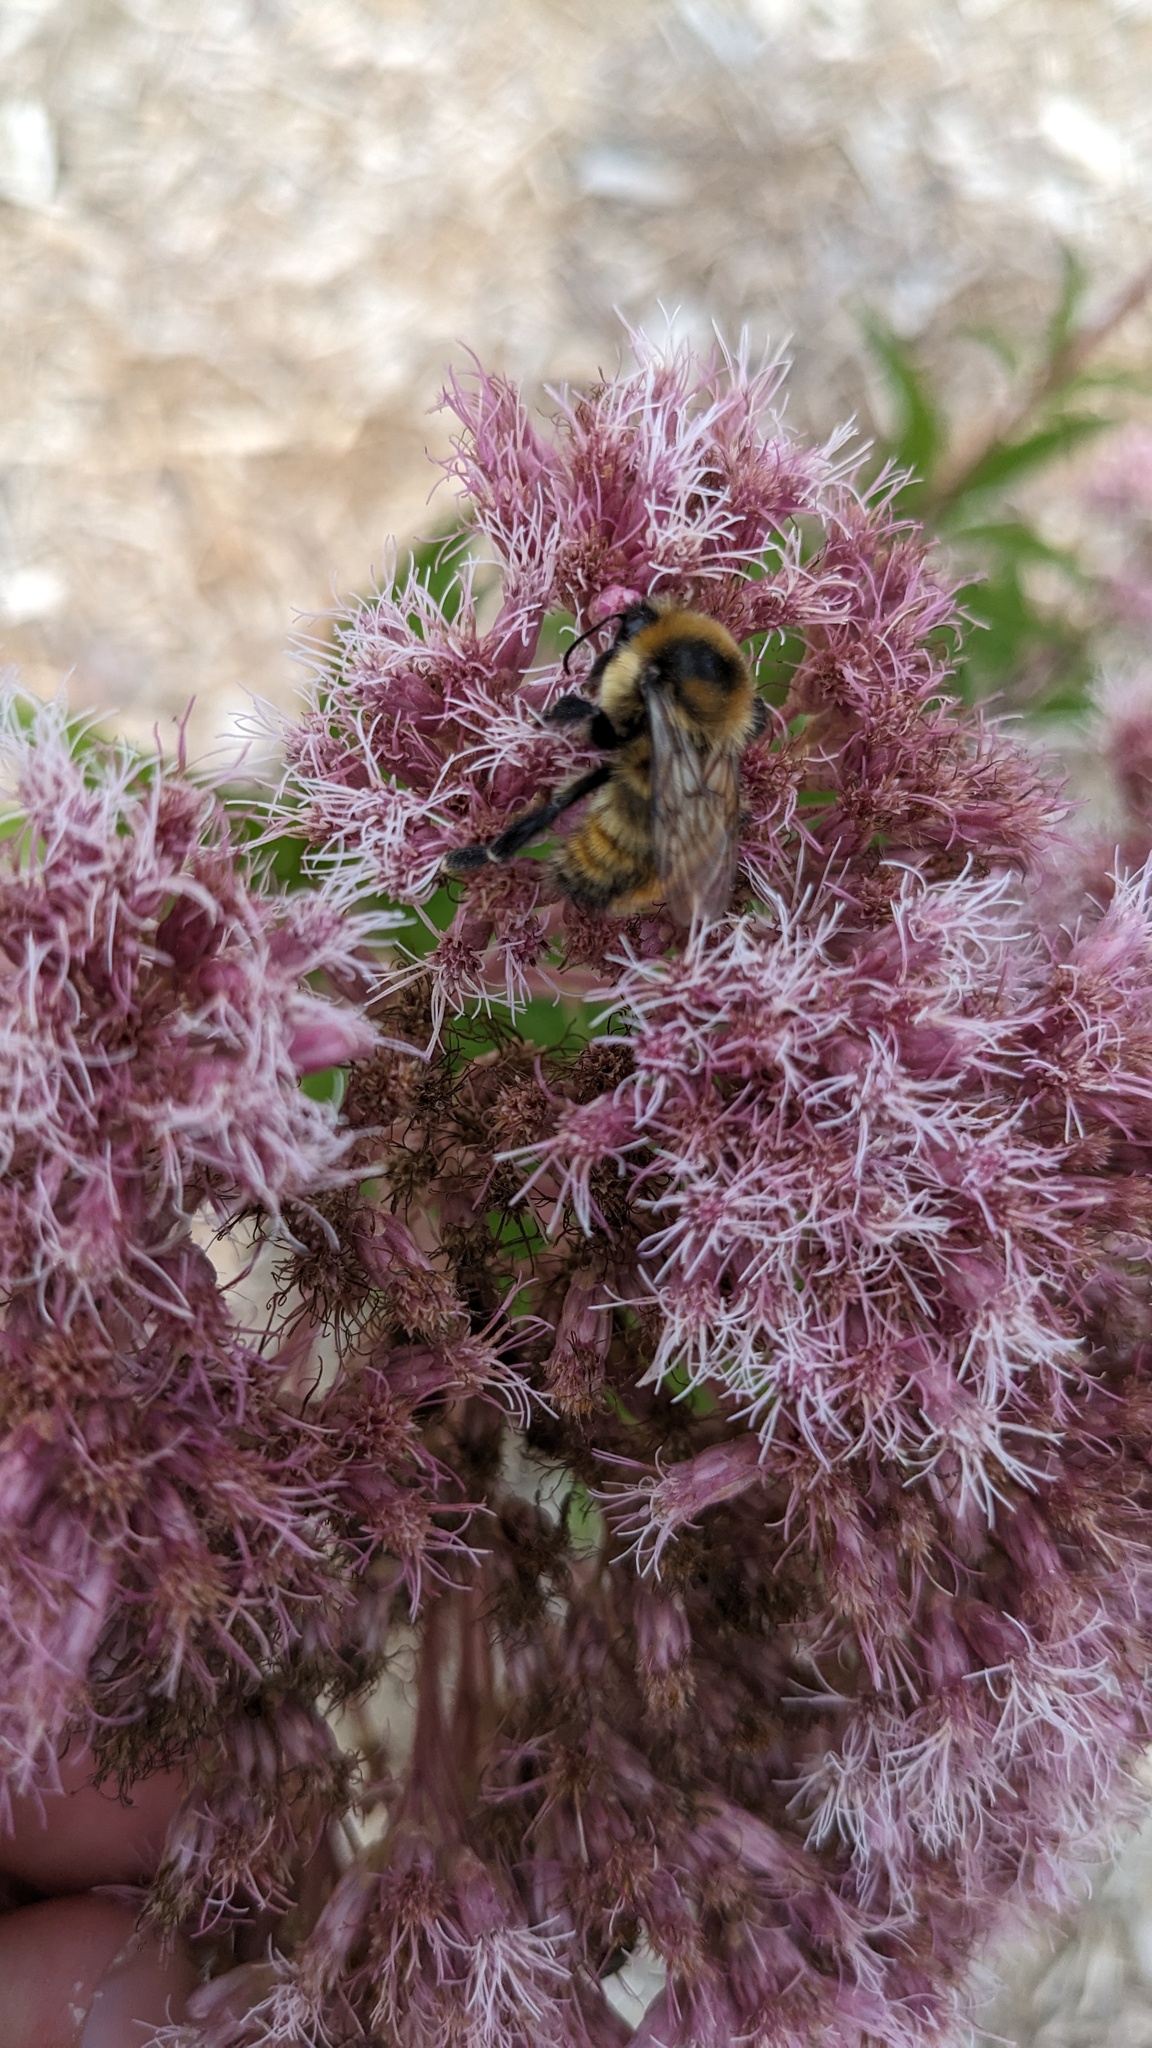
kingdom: Animalia
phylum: Arthropoda
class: Insecta
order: Hymenoptera
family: Apidae
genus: Bombus
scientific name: Bombus rufocinctus
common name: Red-belted bumble bee
